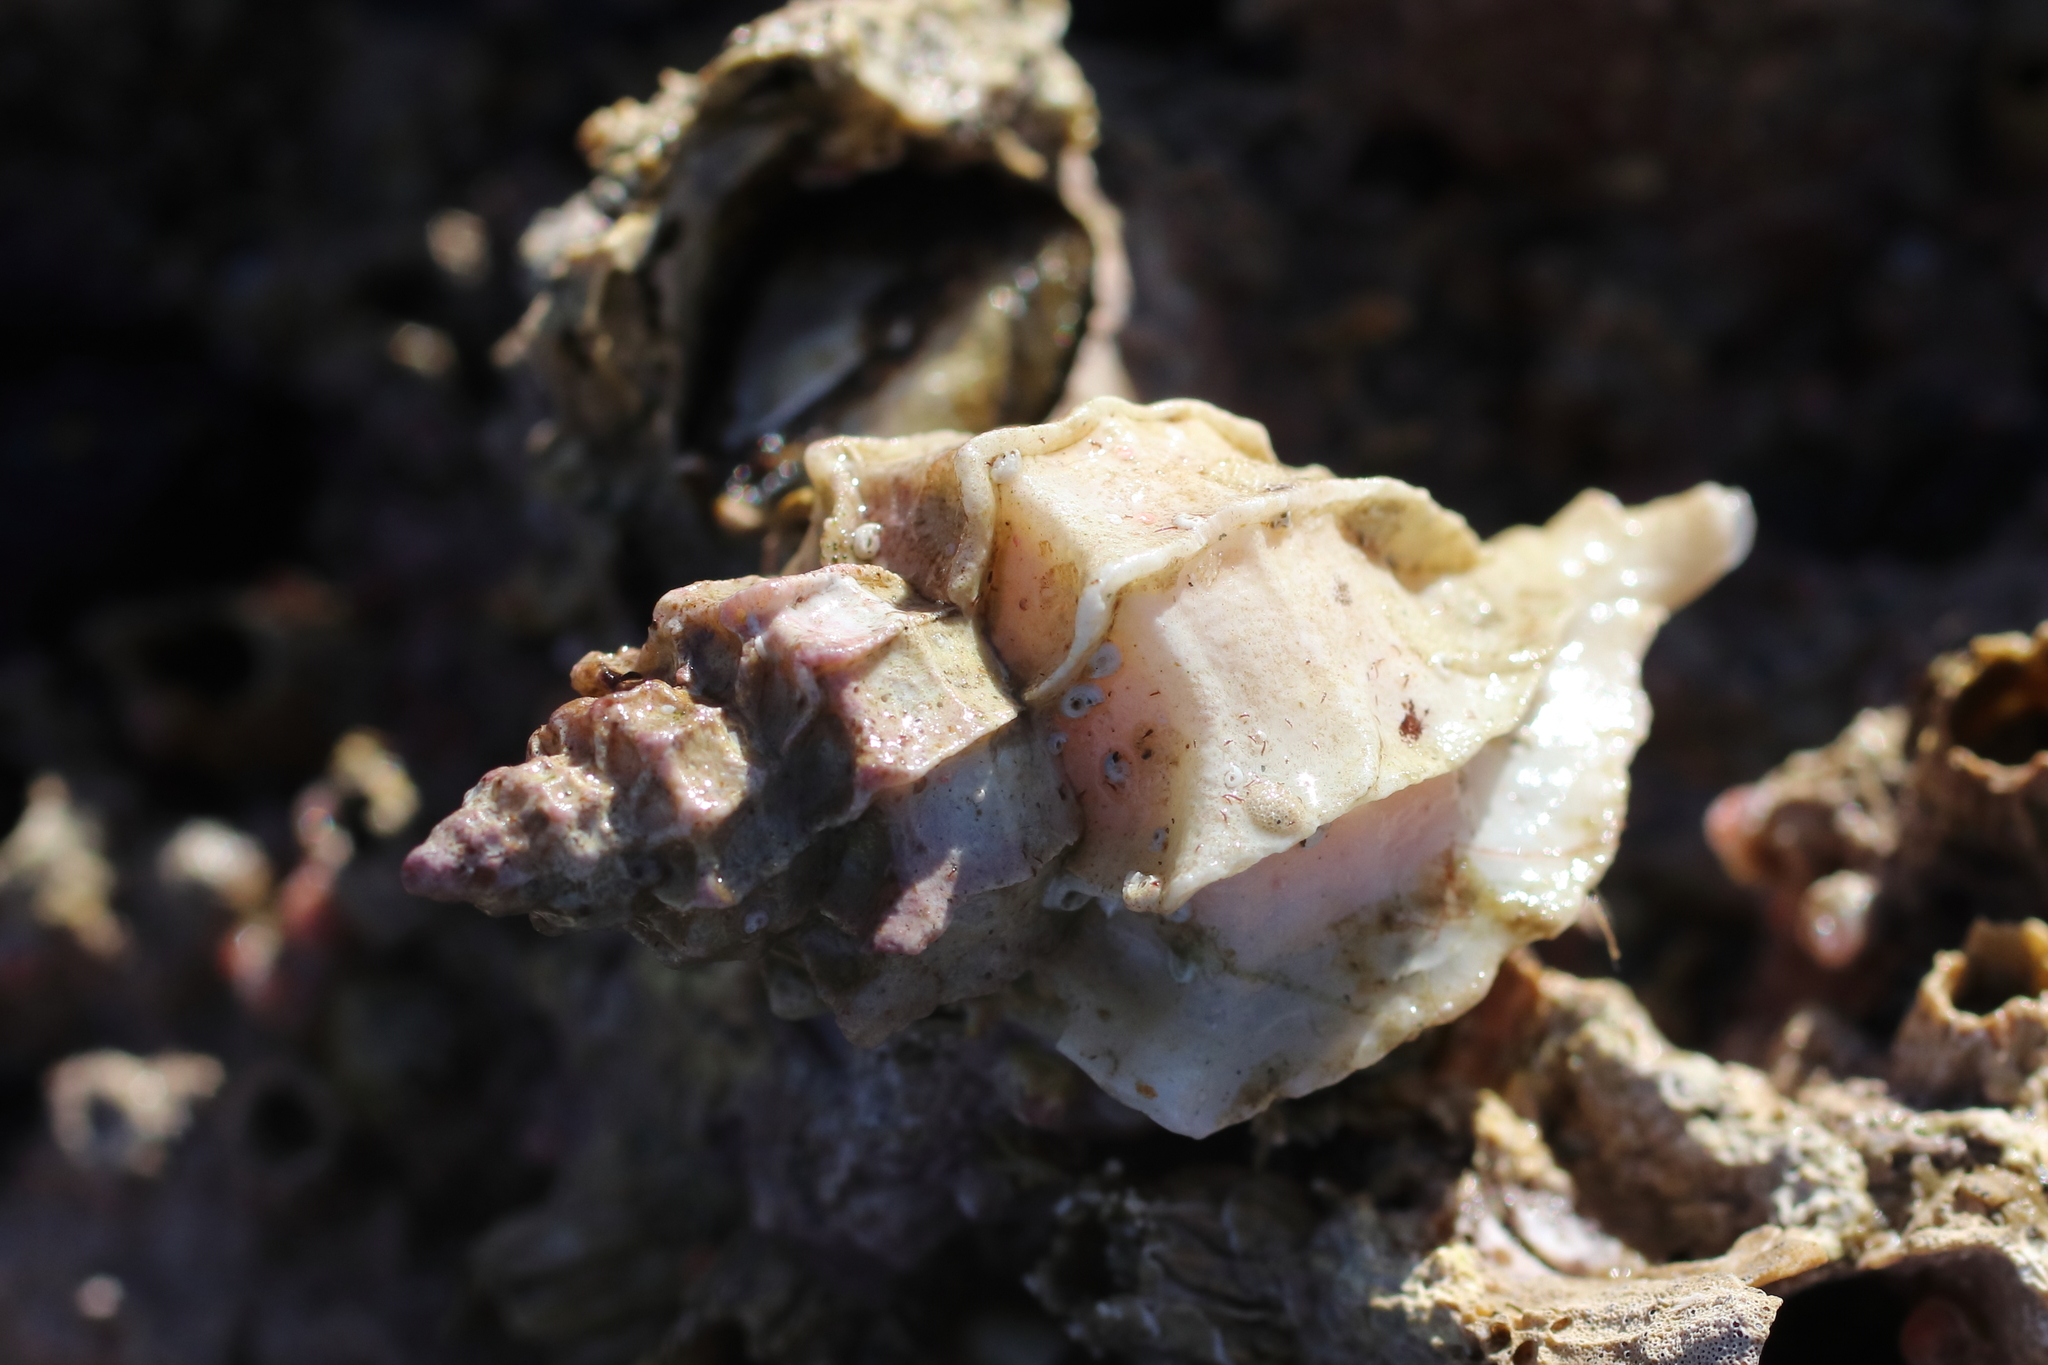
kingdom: Animalia
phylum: Mollusca
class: Gastropoda
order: Neogastropoda
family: Muricidae
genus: Scabrotrophon
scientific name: Scabrotrophon stuarti
